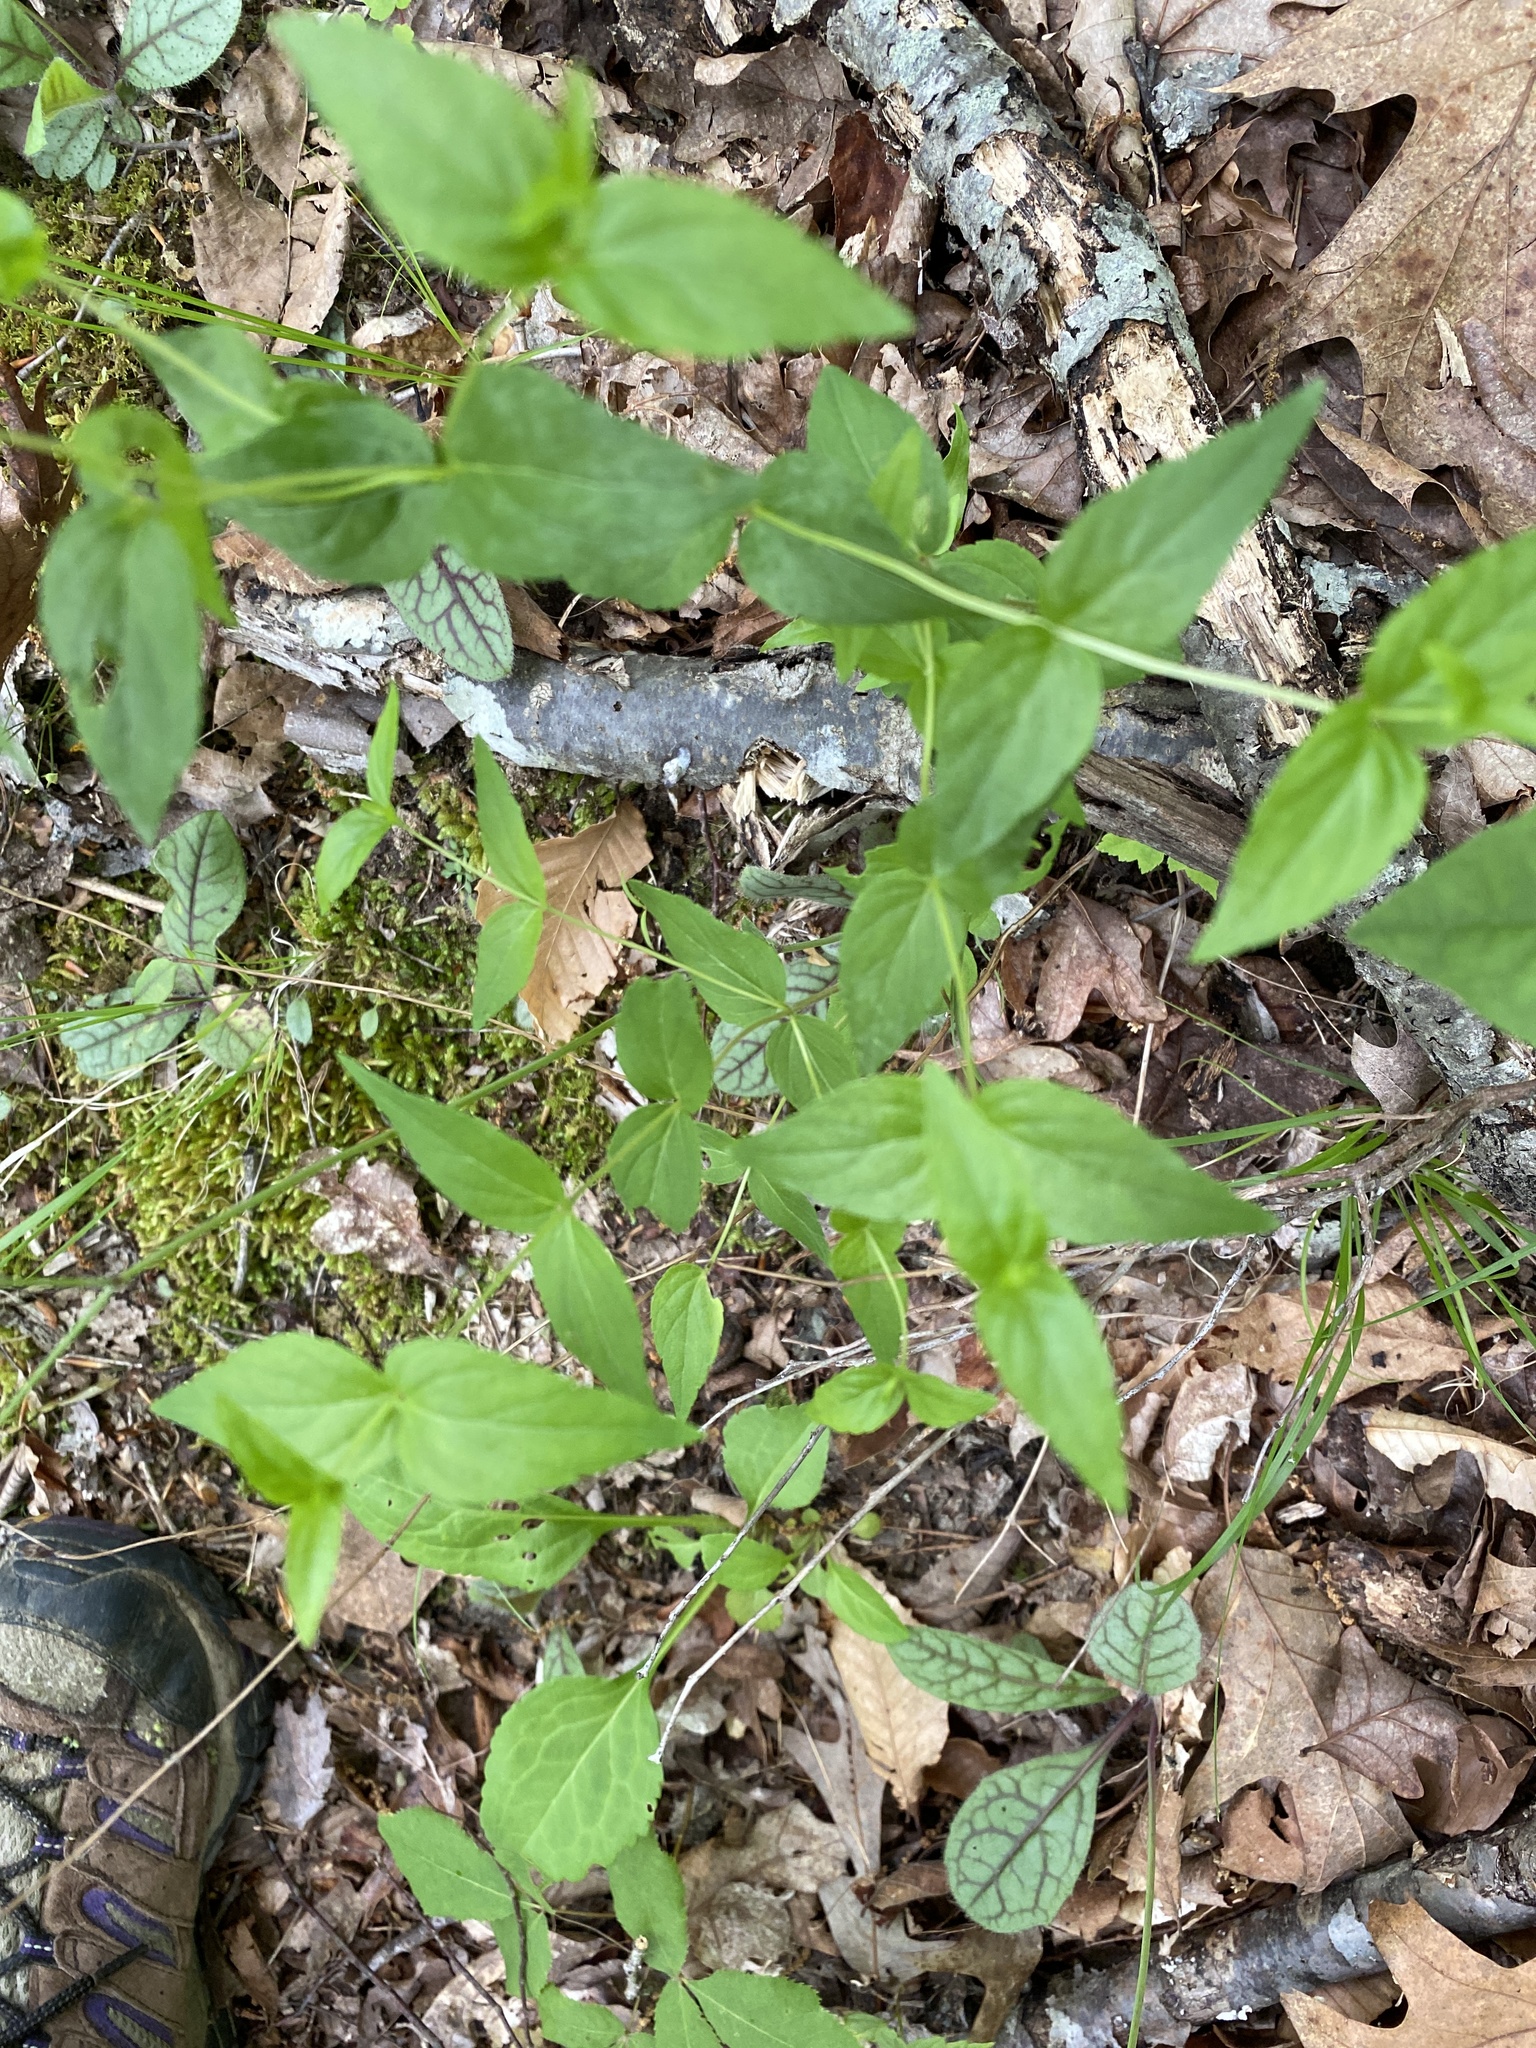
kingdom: Plantae
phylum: Tracheophyta
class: Magnoliopsida
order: Lamiales
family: Lamiaceae
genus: Cunila
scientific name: Cunila origanoides
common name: American dittany
